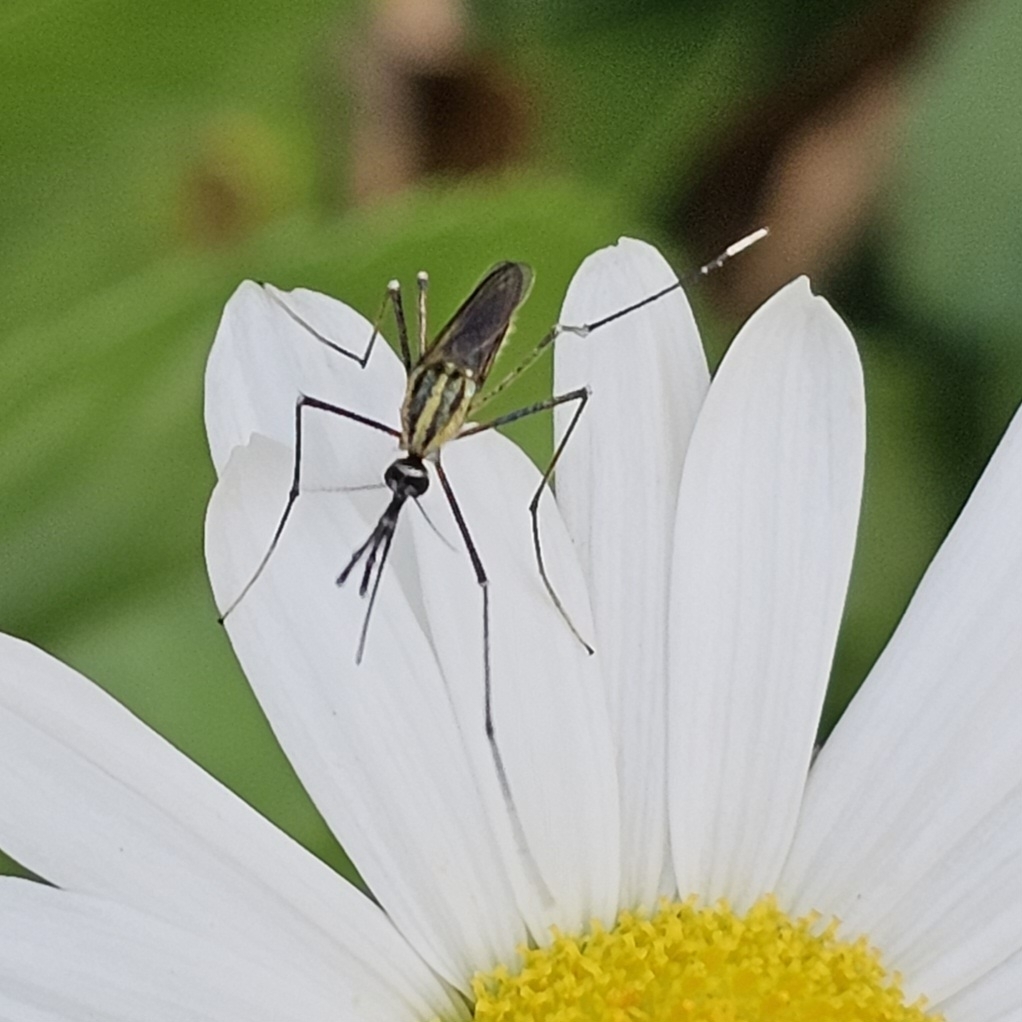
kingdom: Animalia
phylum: Arthropoda
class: Insecta
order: Diptera
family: Culicidae
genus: Toxorhynchites
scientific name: Toxorhynchites rutilus
